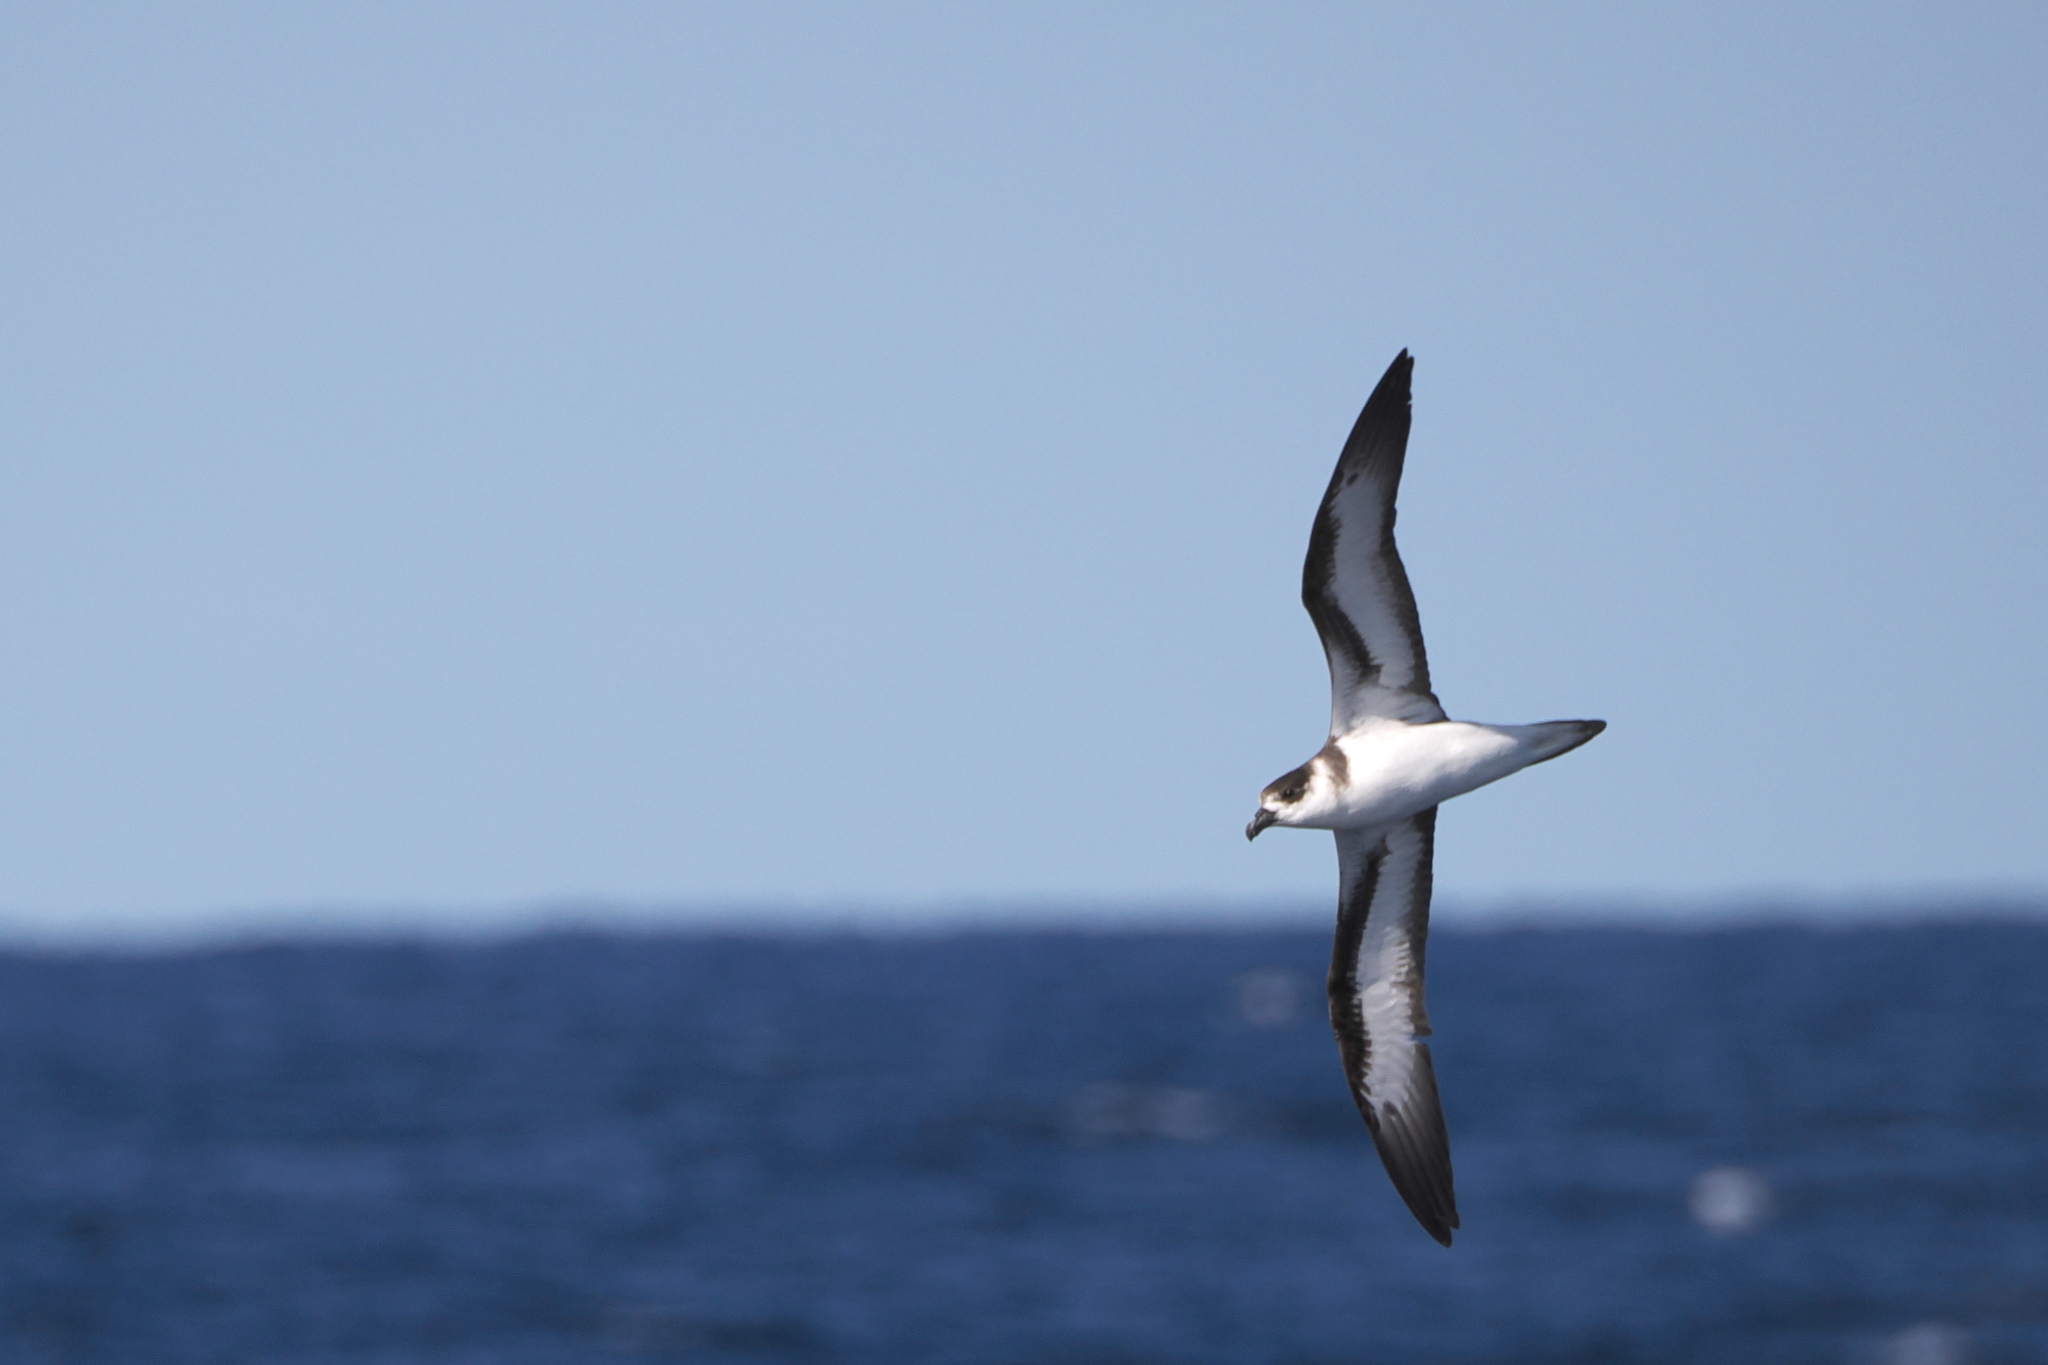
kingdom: Animalia
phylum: Chordata
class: Aves
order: Procellariiformes
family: Procellariidae
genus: Pterodroma
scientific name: Pterodroma hasitata
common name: Black-capped petrel
